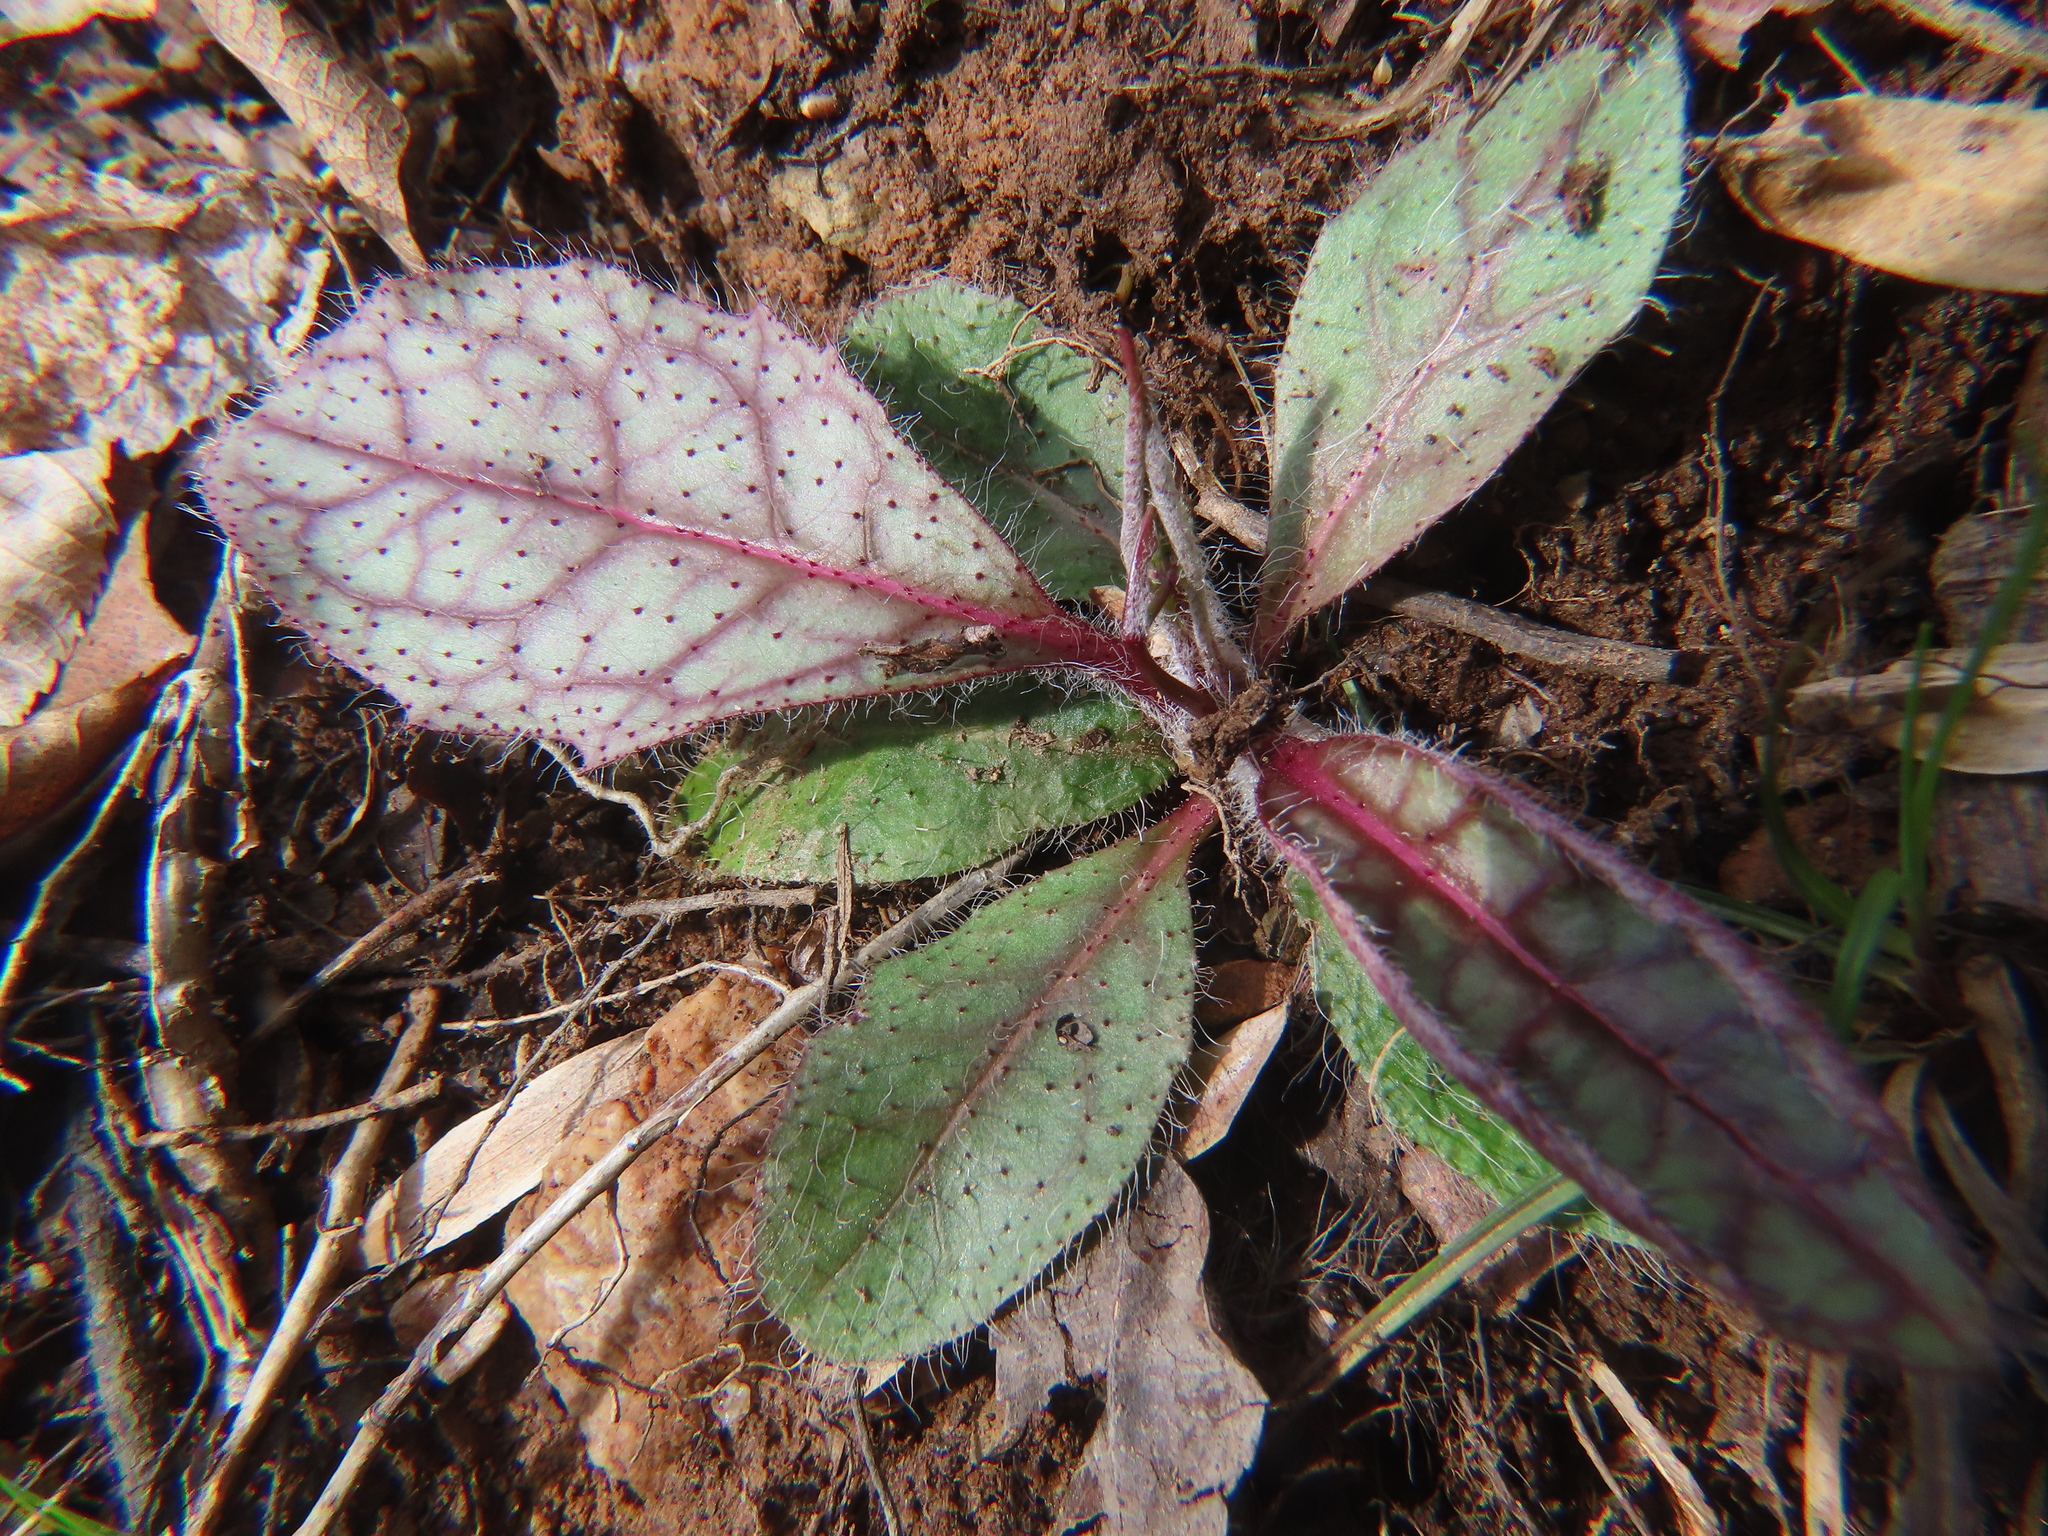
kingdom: Plantae
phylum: Tracheophyta
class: Magnoliopsida
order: Asterales
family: Asteraceae
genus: Hieracium
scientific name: Hieracium venosum
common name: Rattlesnake hawkweed
